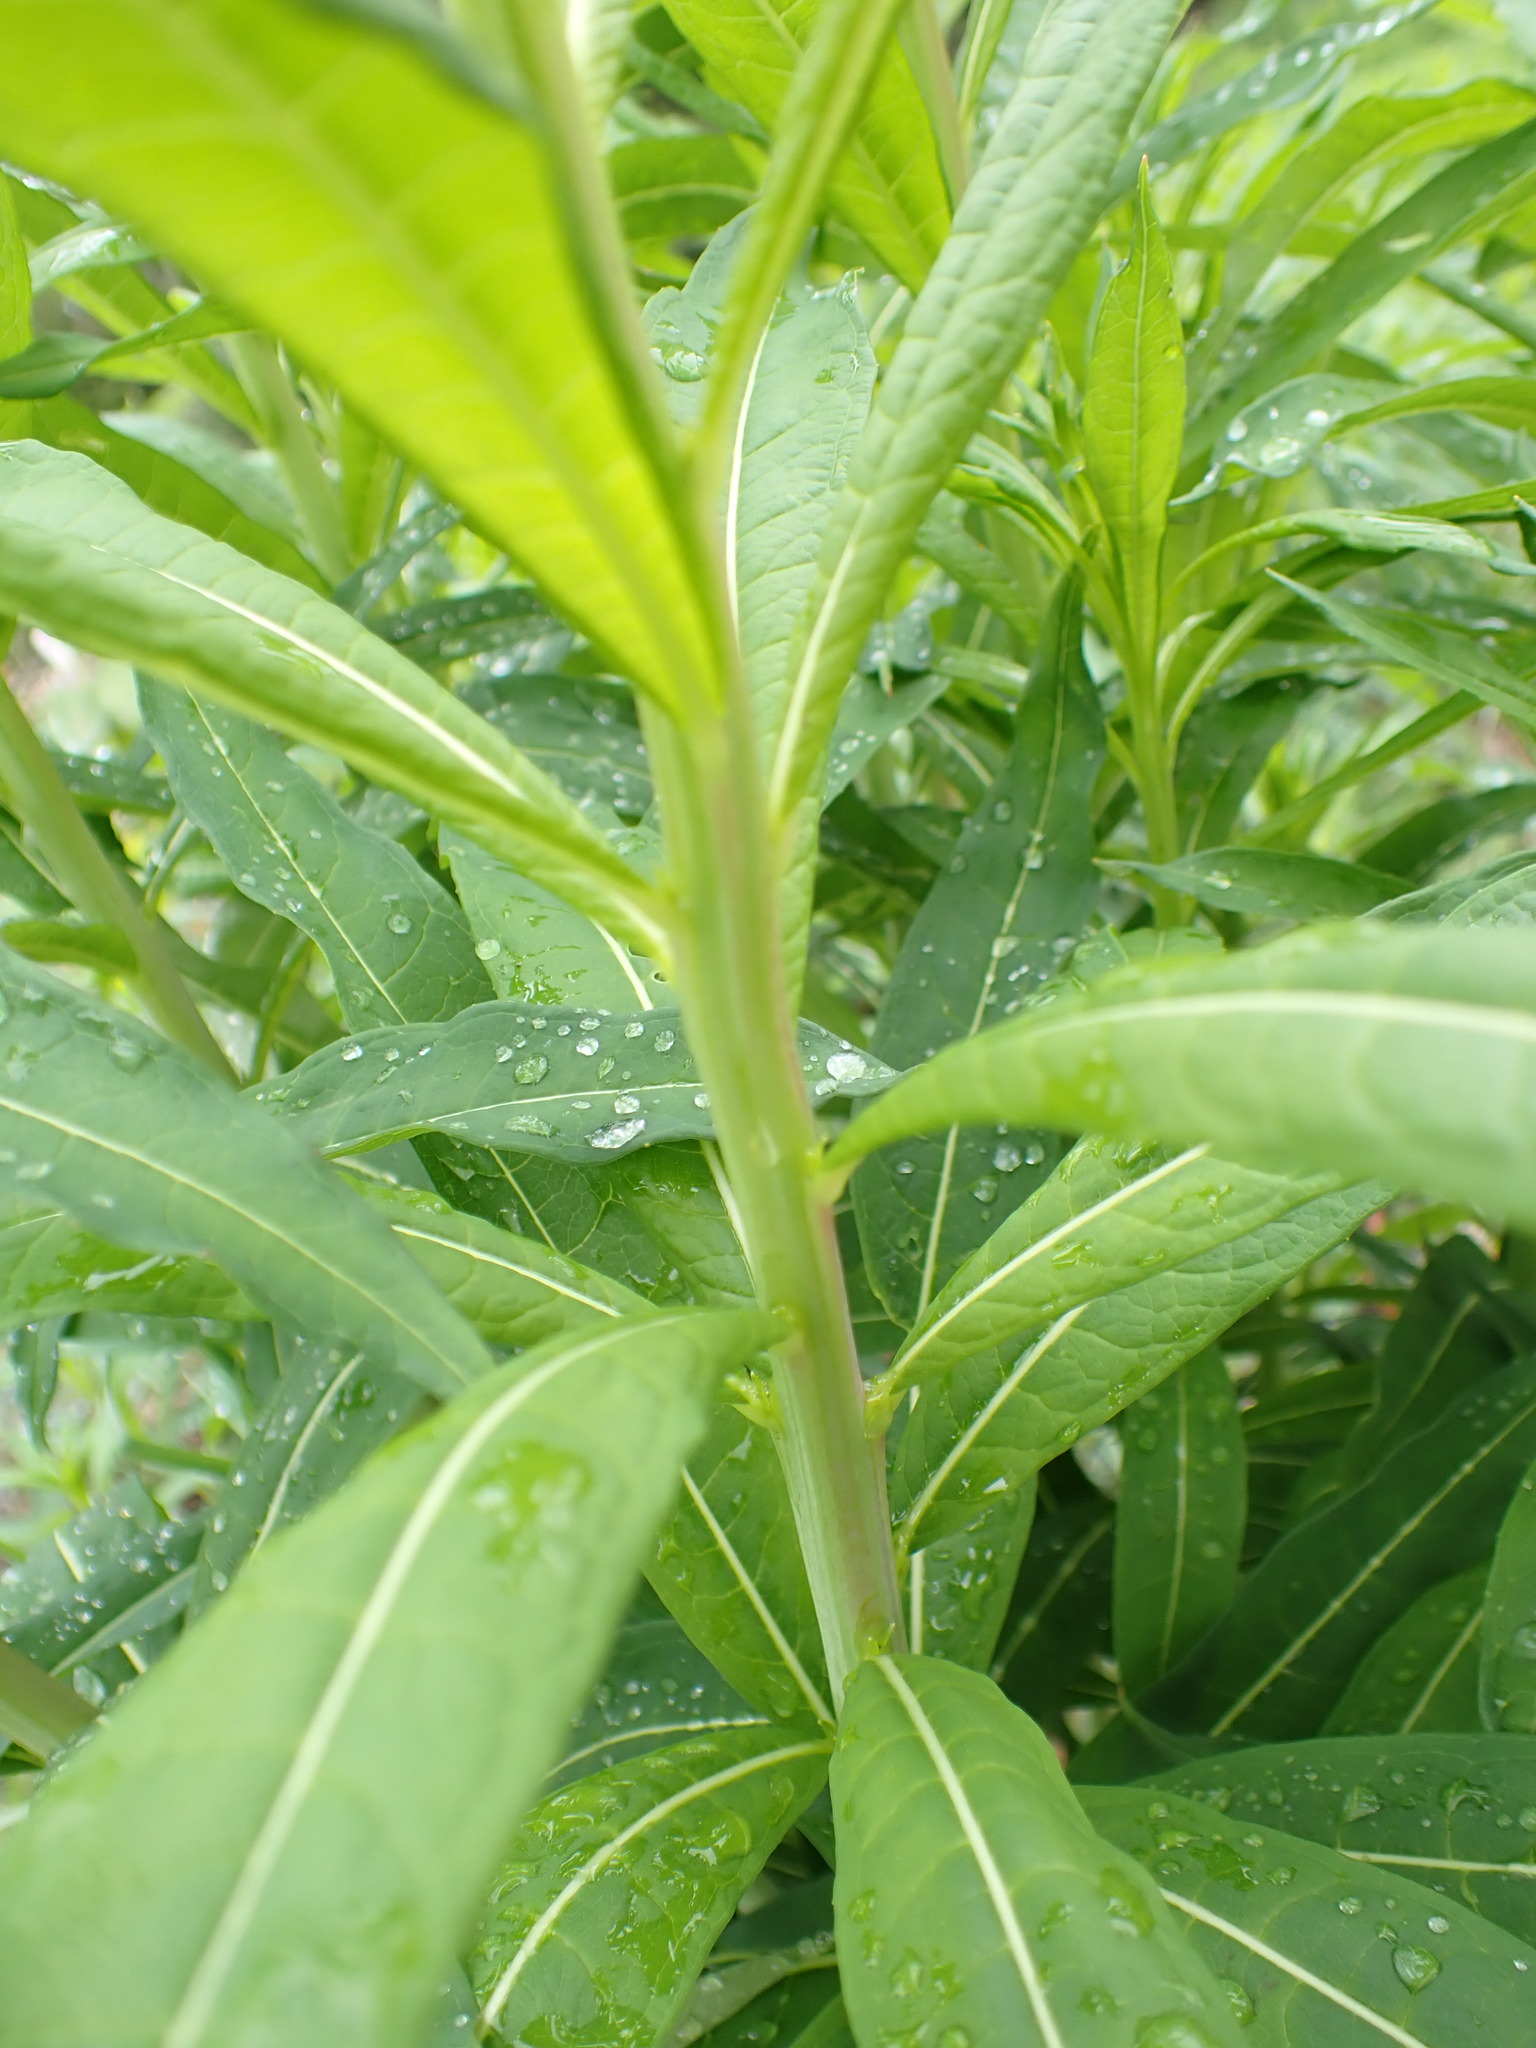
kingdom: Plantae
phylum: Tracheophyta
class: Magnoliopsida
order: Myrtales
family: Onagraceae
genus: Chamaenerion
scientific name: Chamaenerion angustifolium
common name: Fireweed
